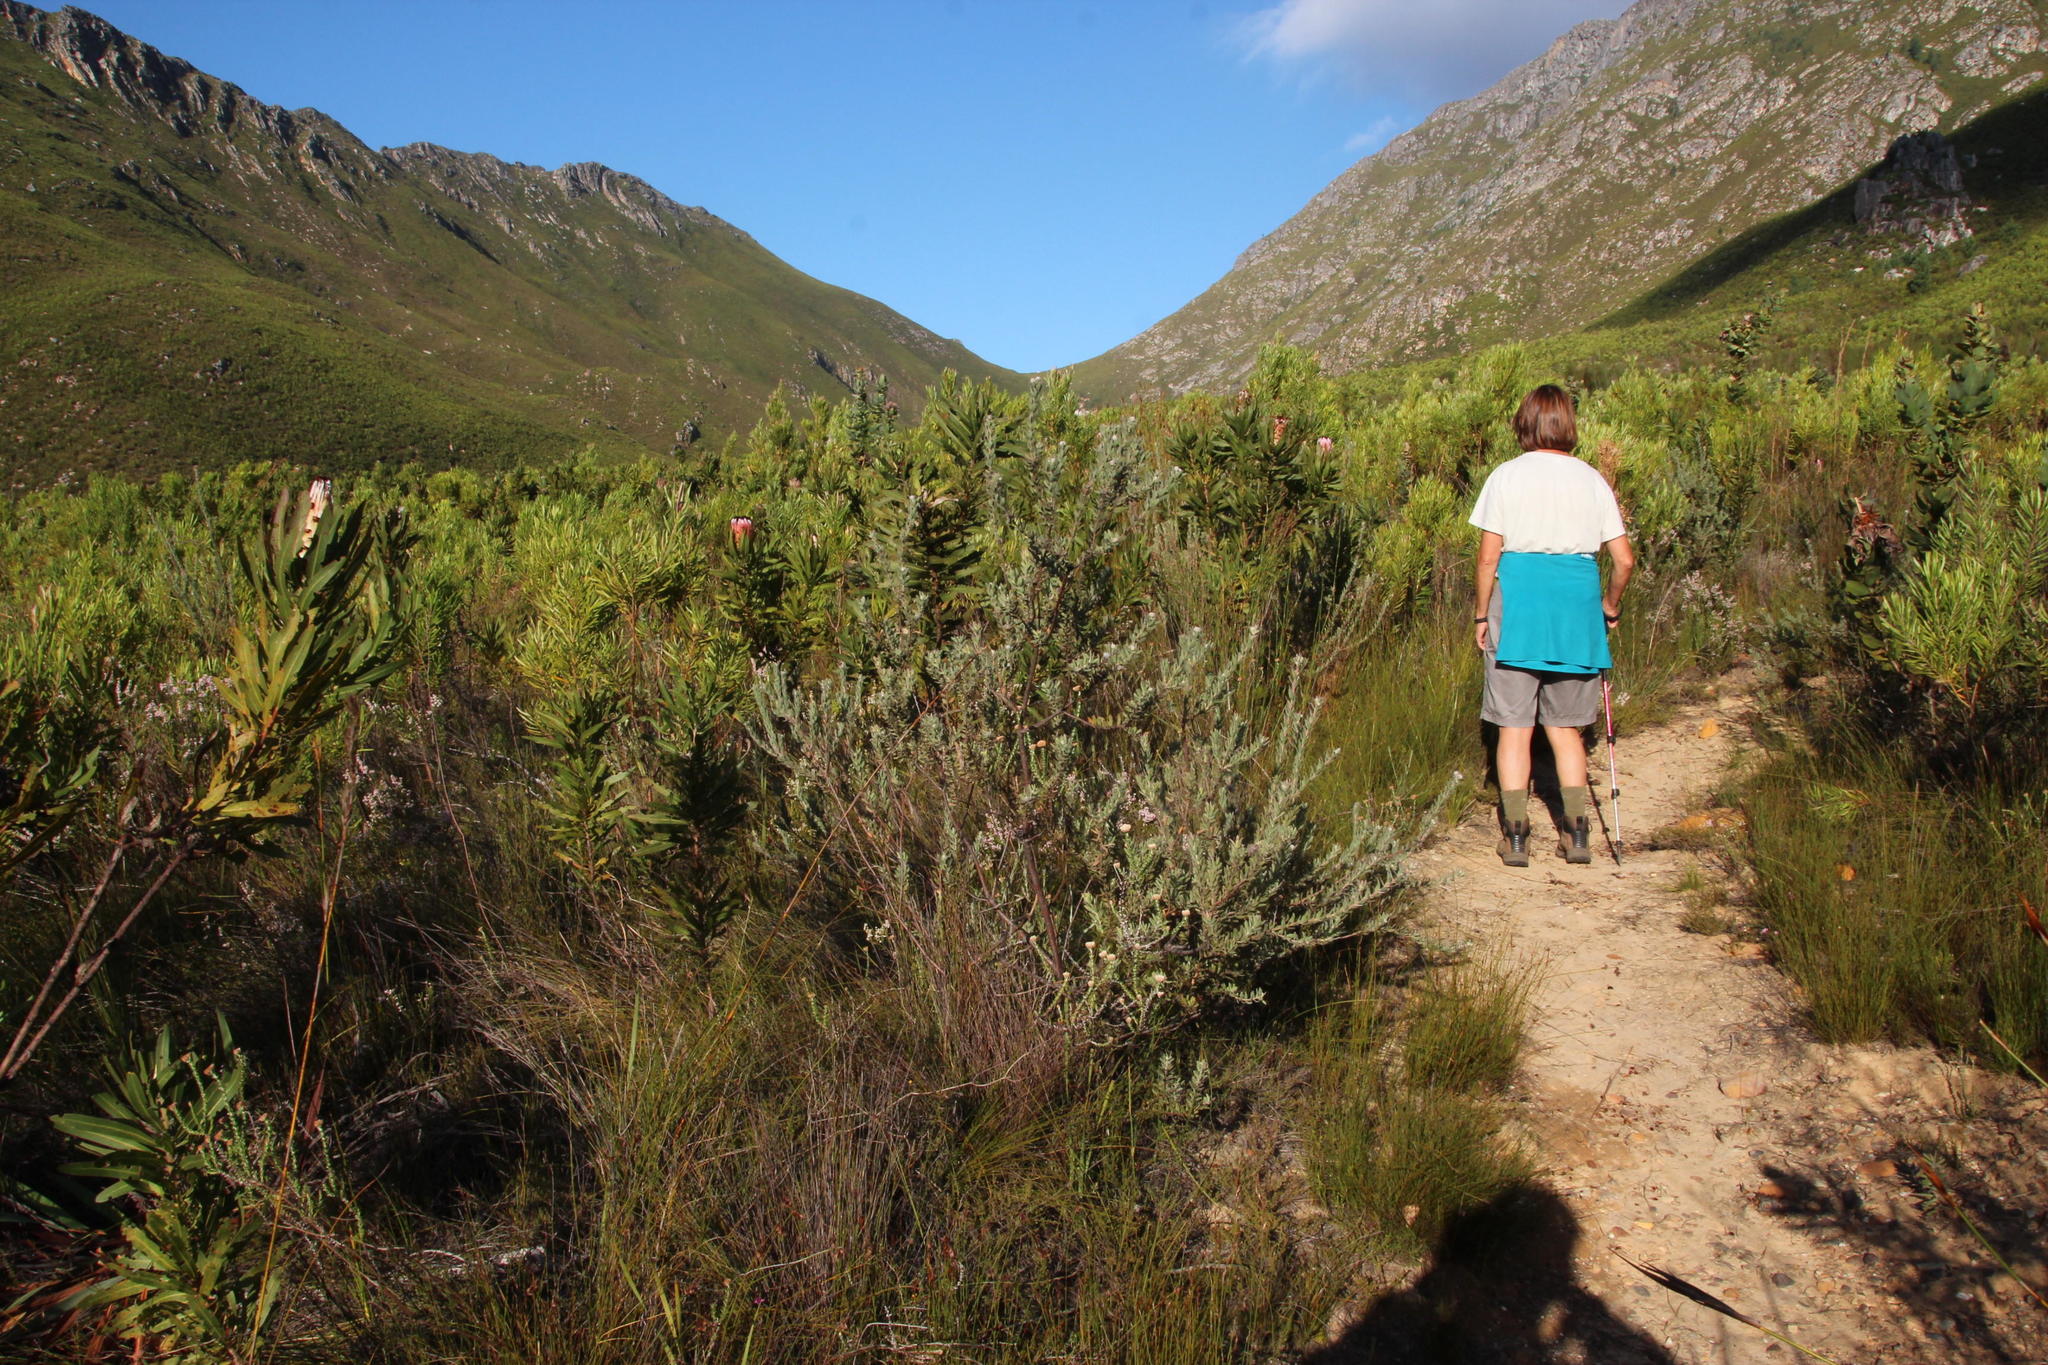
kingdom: Plantae
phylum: Tracheophyta
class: Magnoliopsida
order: Proteales
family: Proteaceae
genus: Leucospermum
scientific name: Leucospermum calligerum
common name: Arid pincushion
